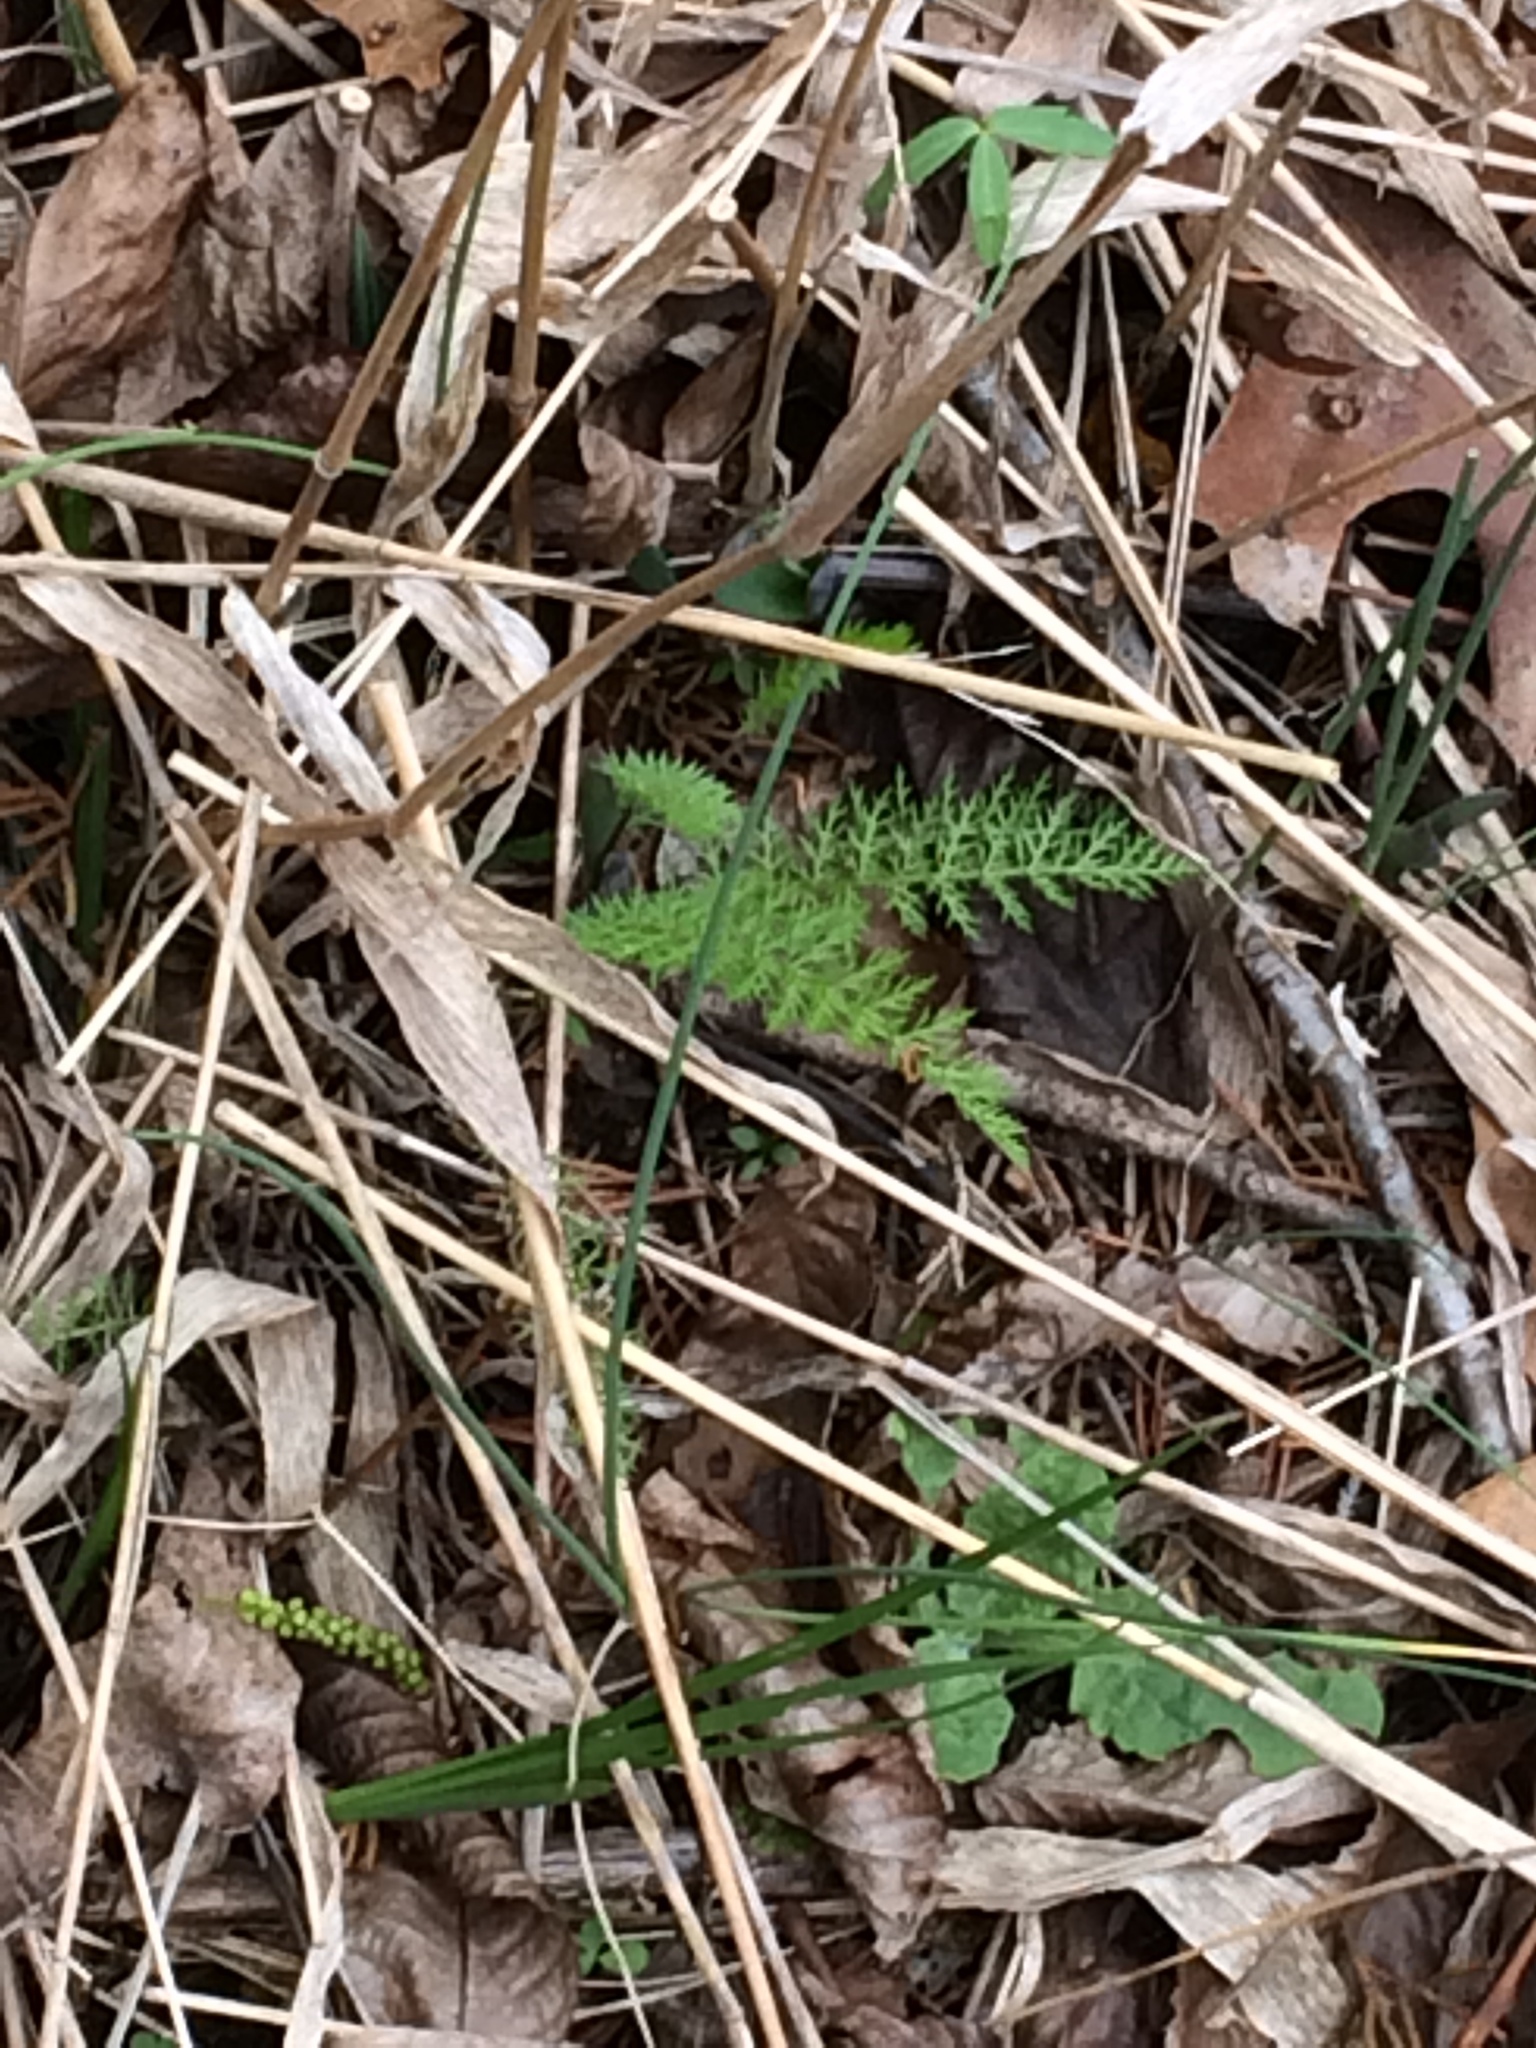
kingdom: Plantae
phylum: Tracheophyta
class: Magnoliopsida
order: Asterales
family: Asteraceae
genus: Achillea
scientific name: Achillea millefolium
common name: Yarrow
